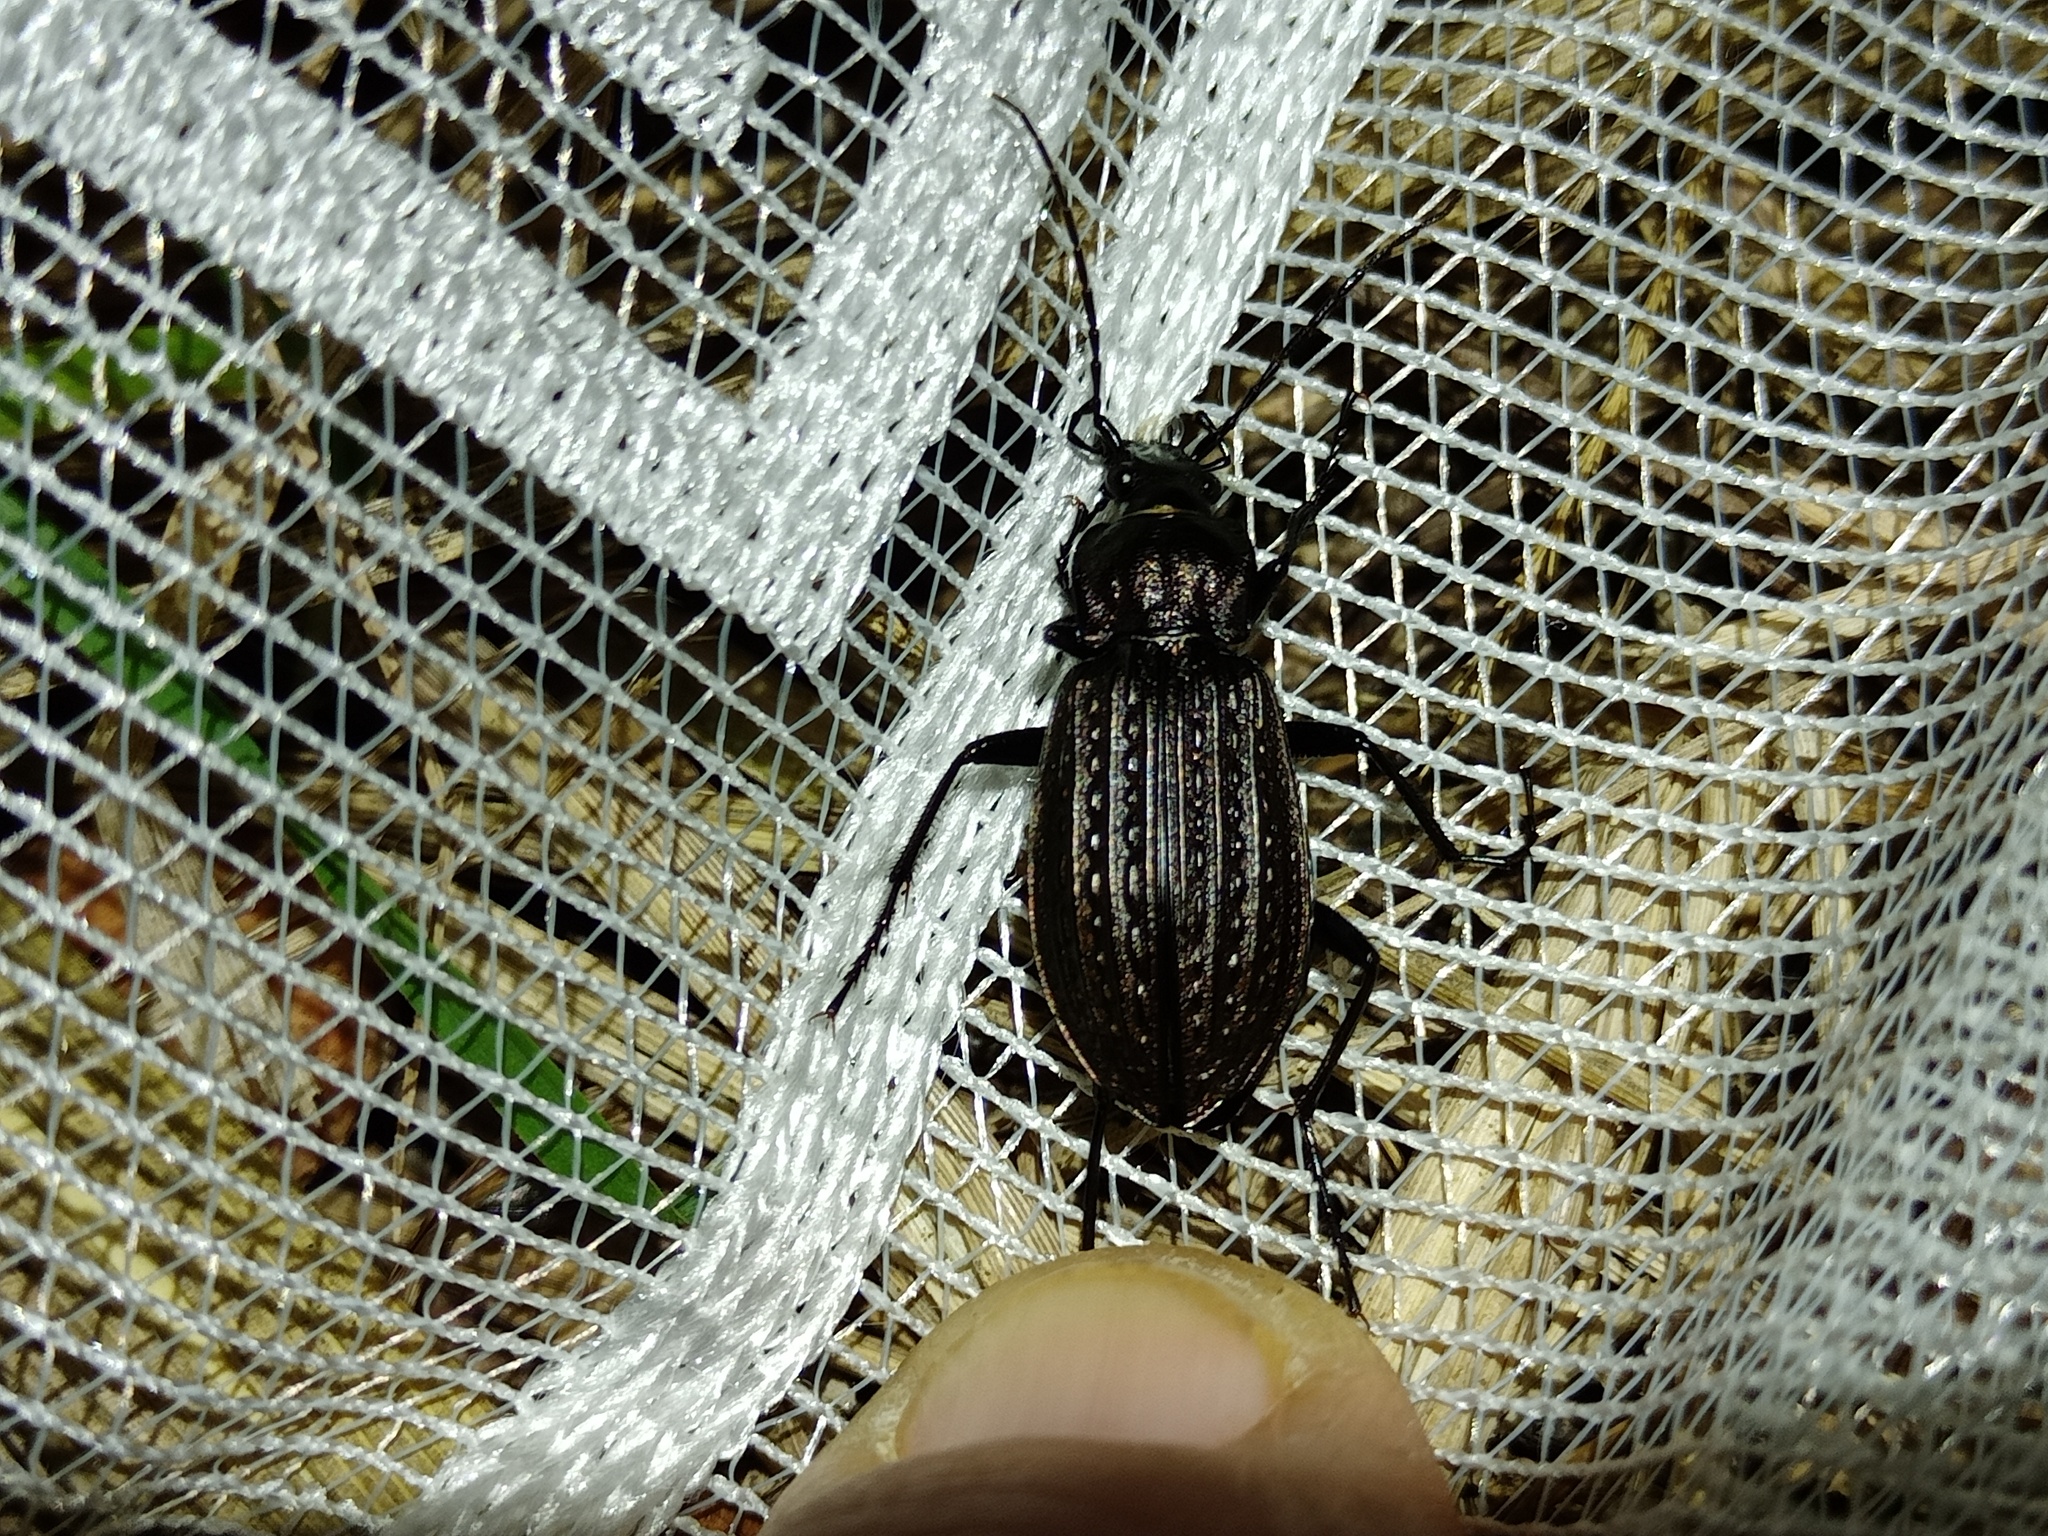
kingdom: Animalia
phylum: Arthropoda
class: Insecta
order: Coleoptera
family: Carabidae
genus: Carabus
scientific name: Carabus granulatus
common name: Granulate ground beetle
